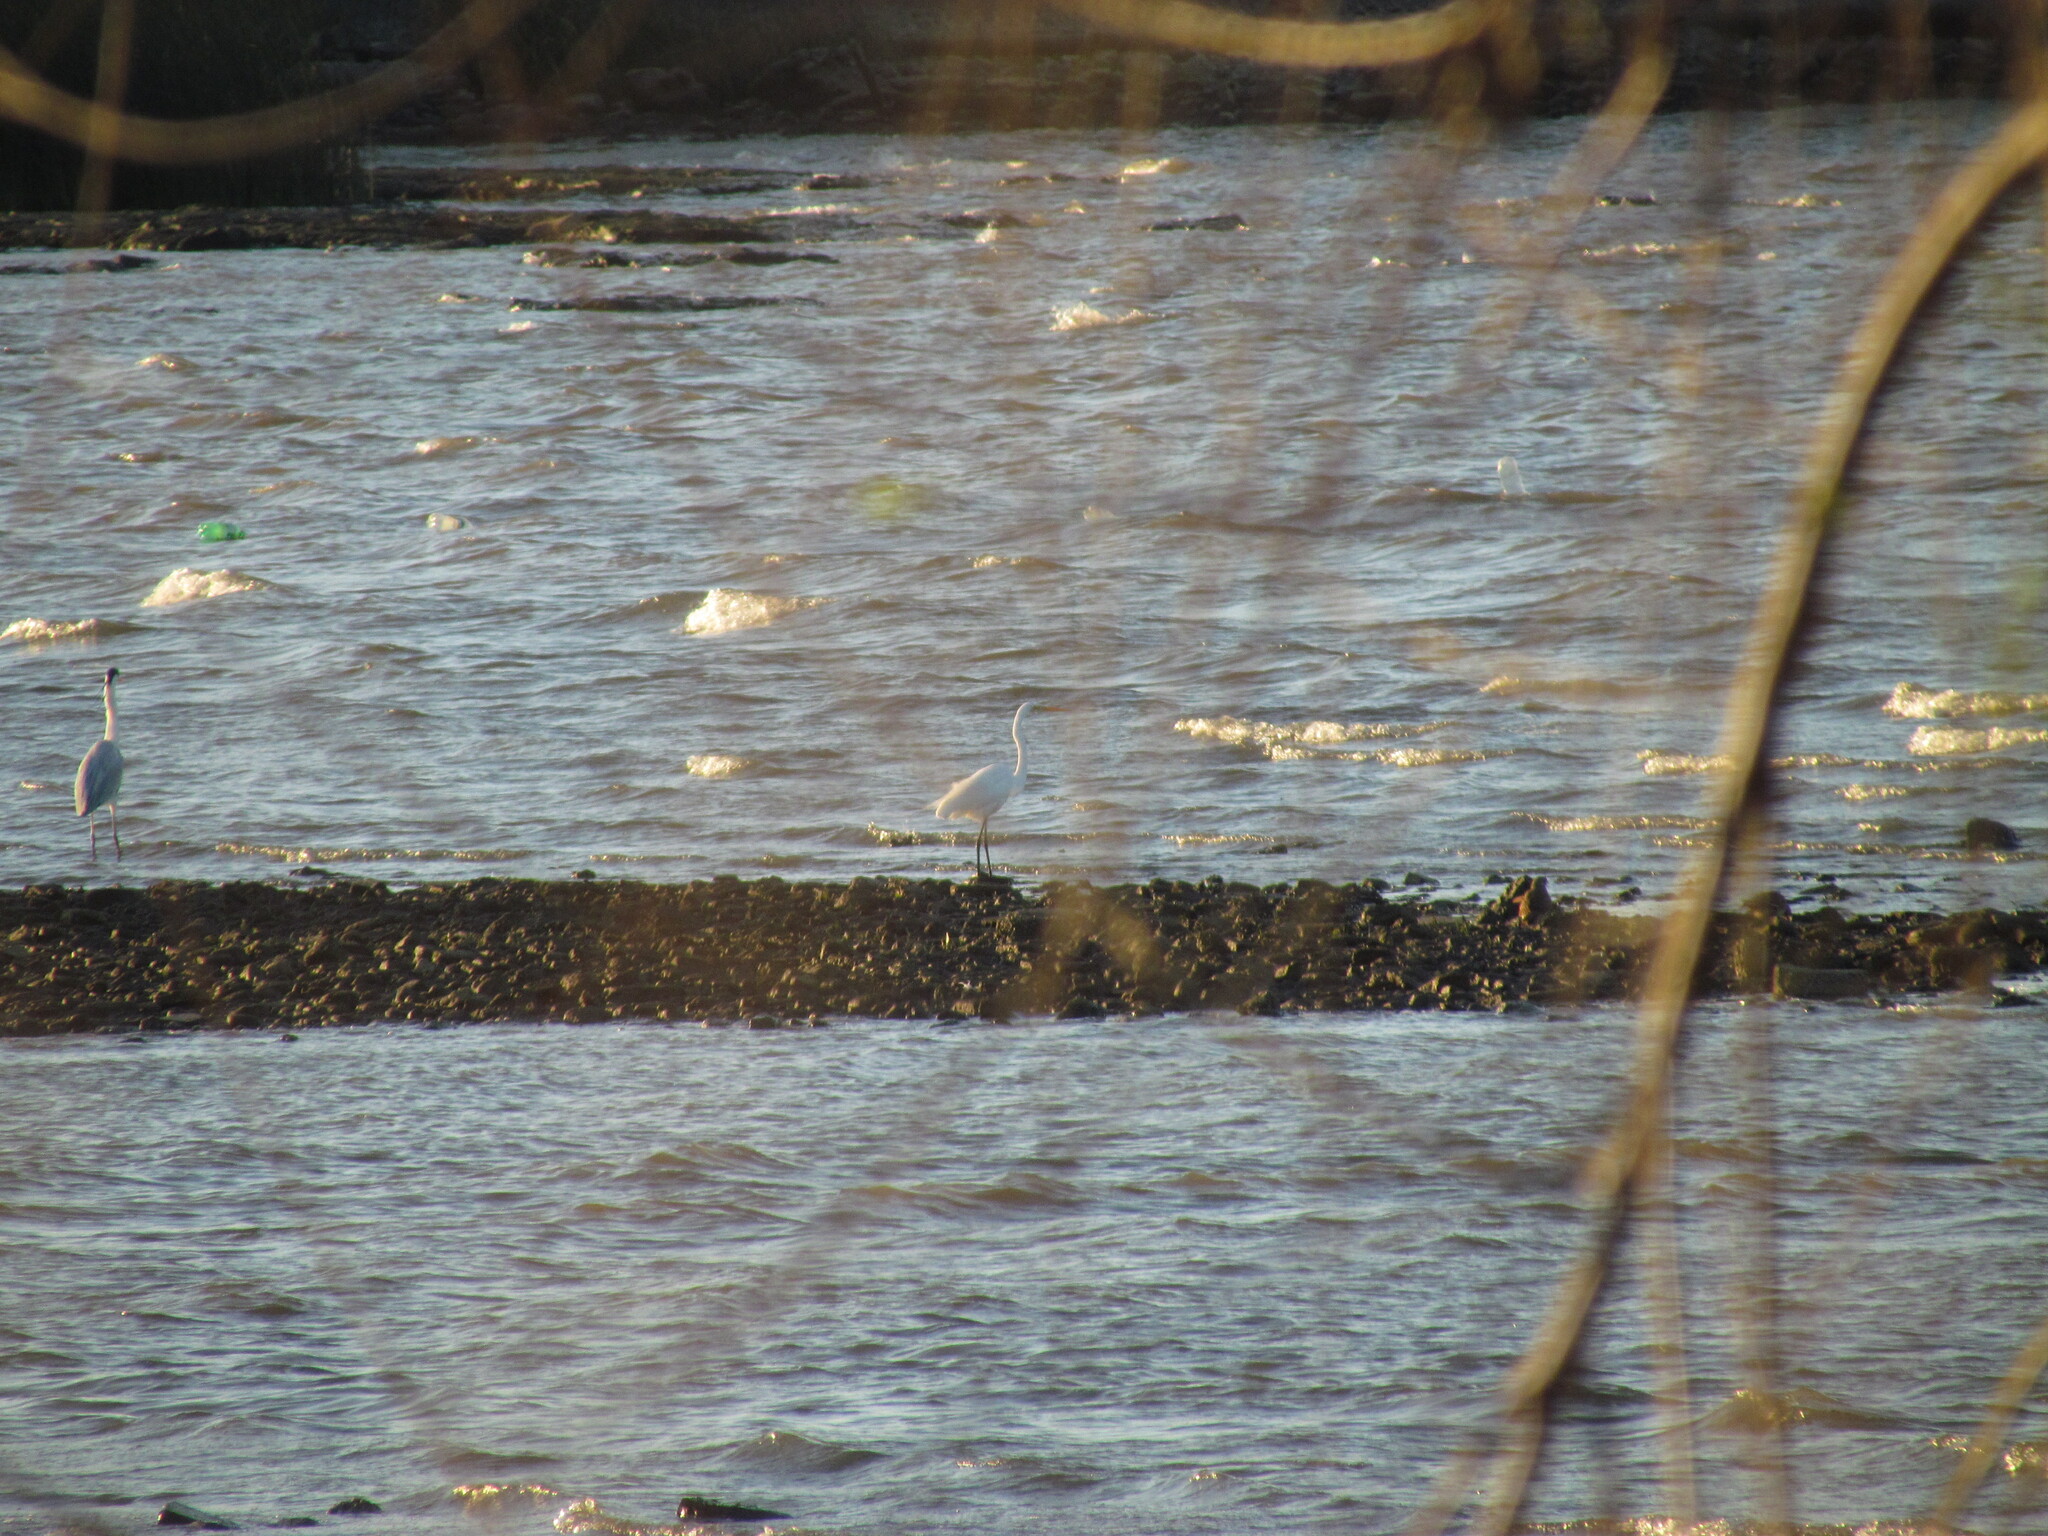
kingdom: Animalia
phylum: Chordata
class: Aves
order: Pelecaniformes
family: Ardeidae
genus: Ardea
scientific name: Ardea alba
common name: Great egret
